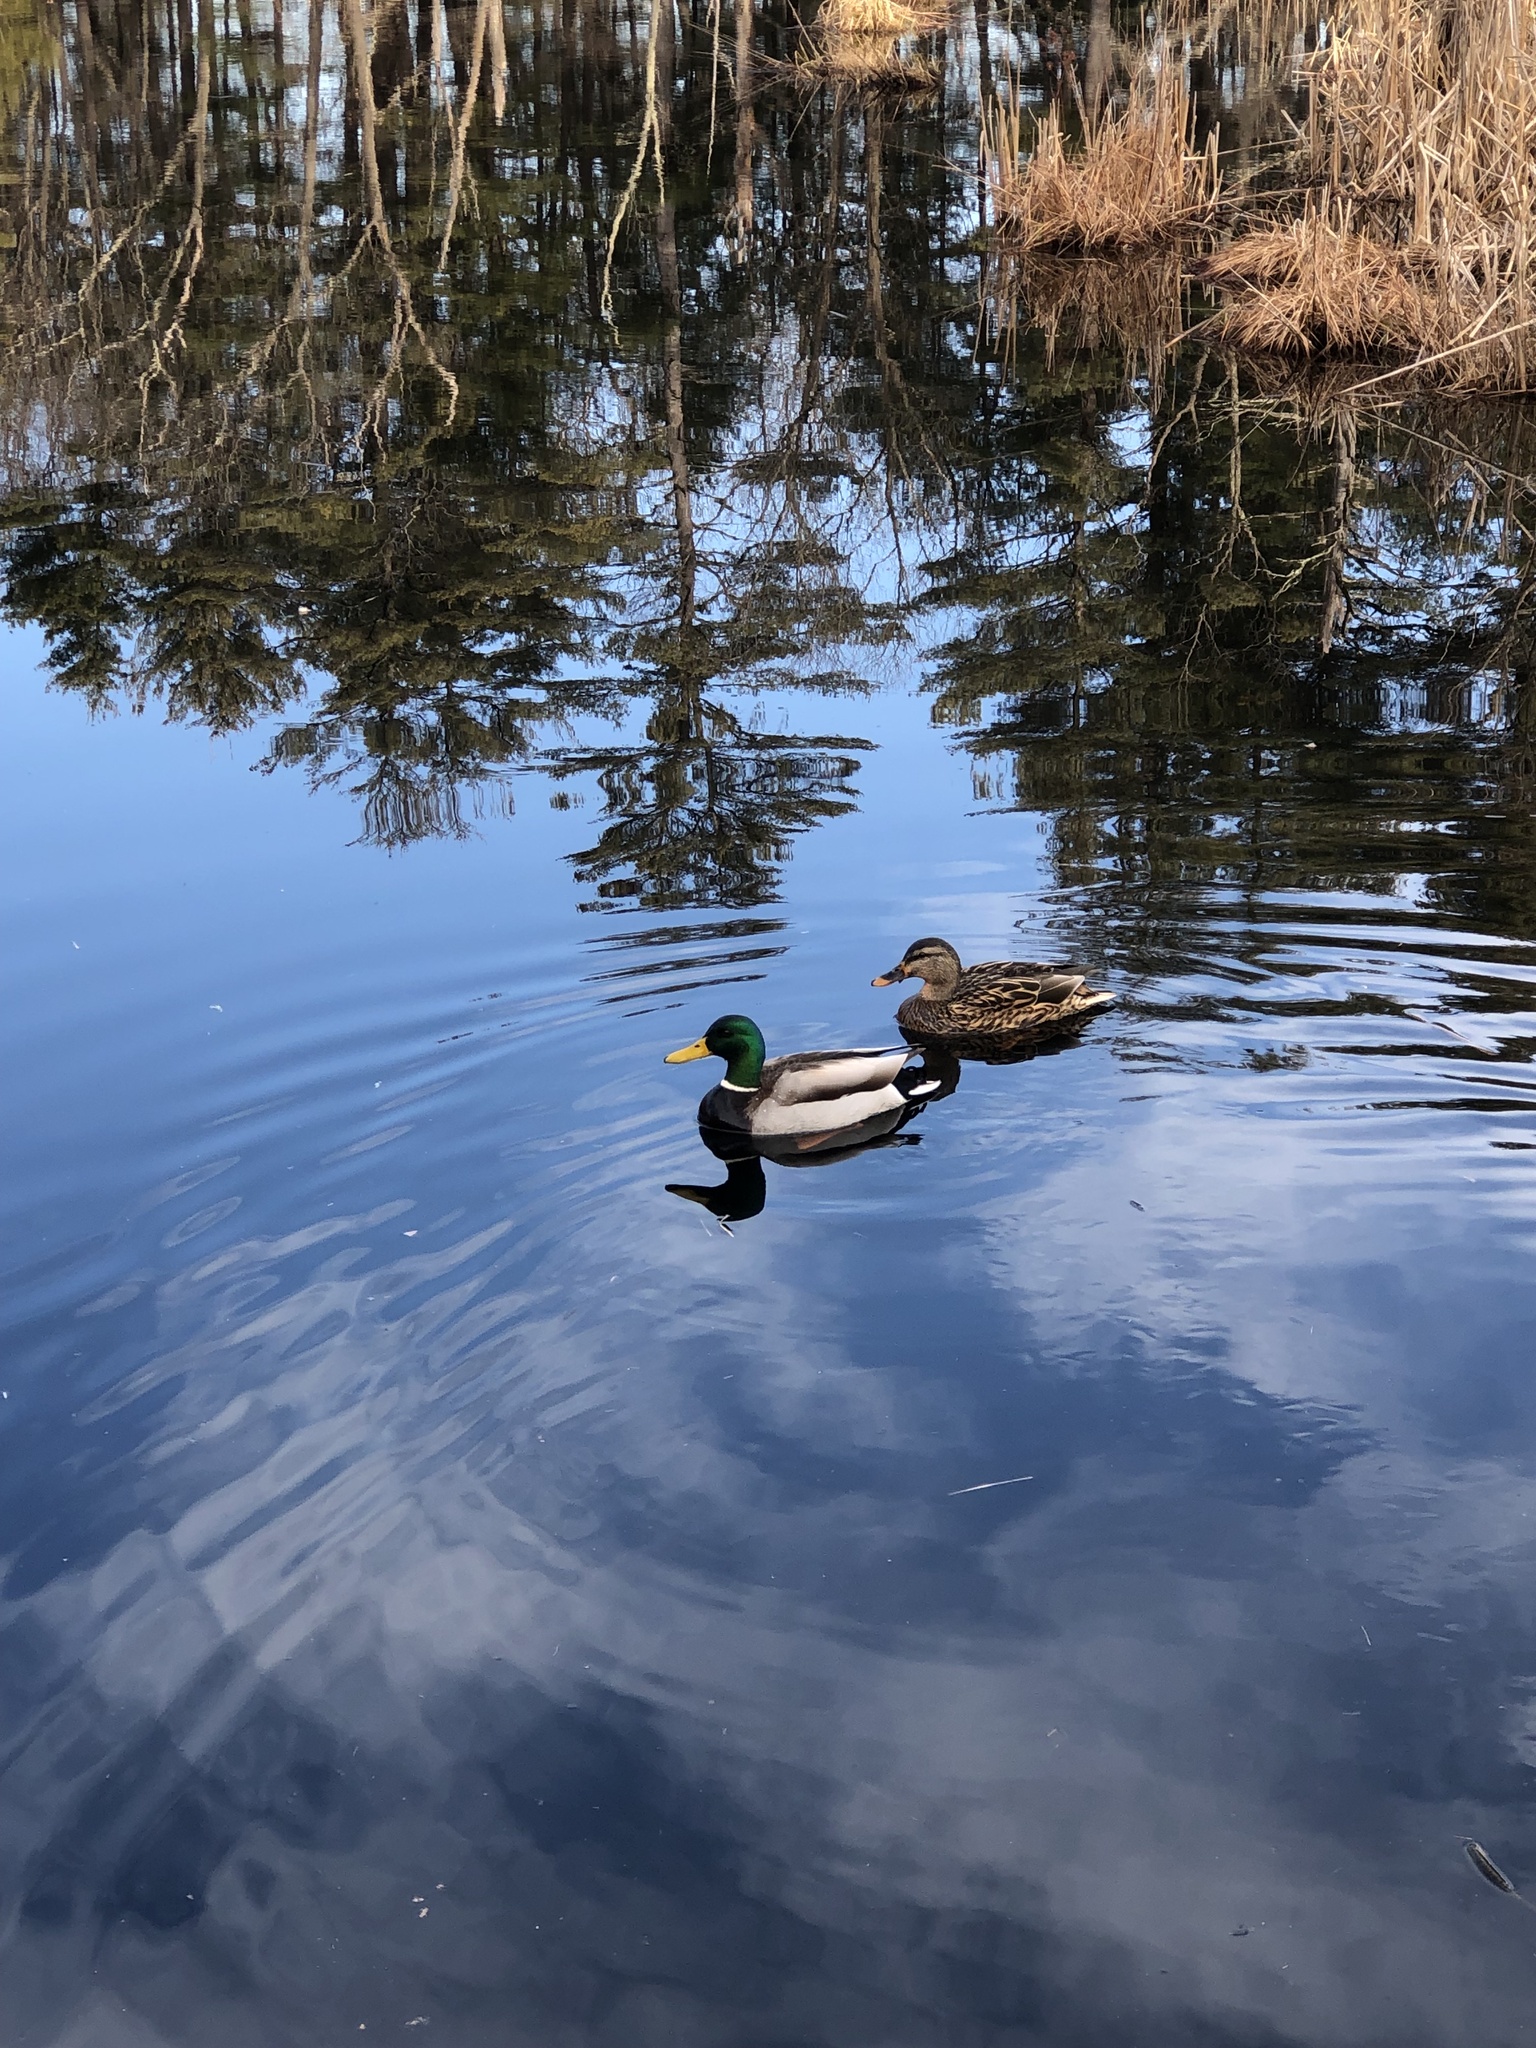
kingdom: Animalia
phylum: Chordata
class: Aves
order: Anseriformes
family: Anatidae
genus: Anas
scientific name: Anas platyrhynchos
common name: Mallard
